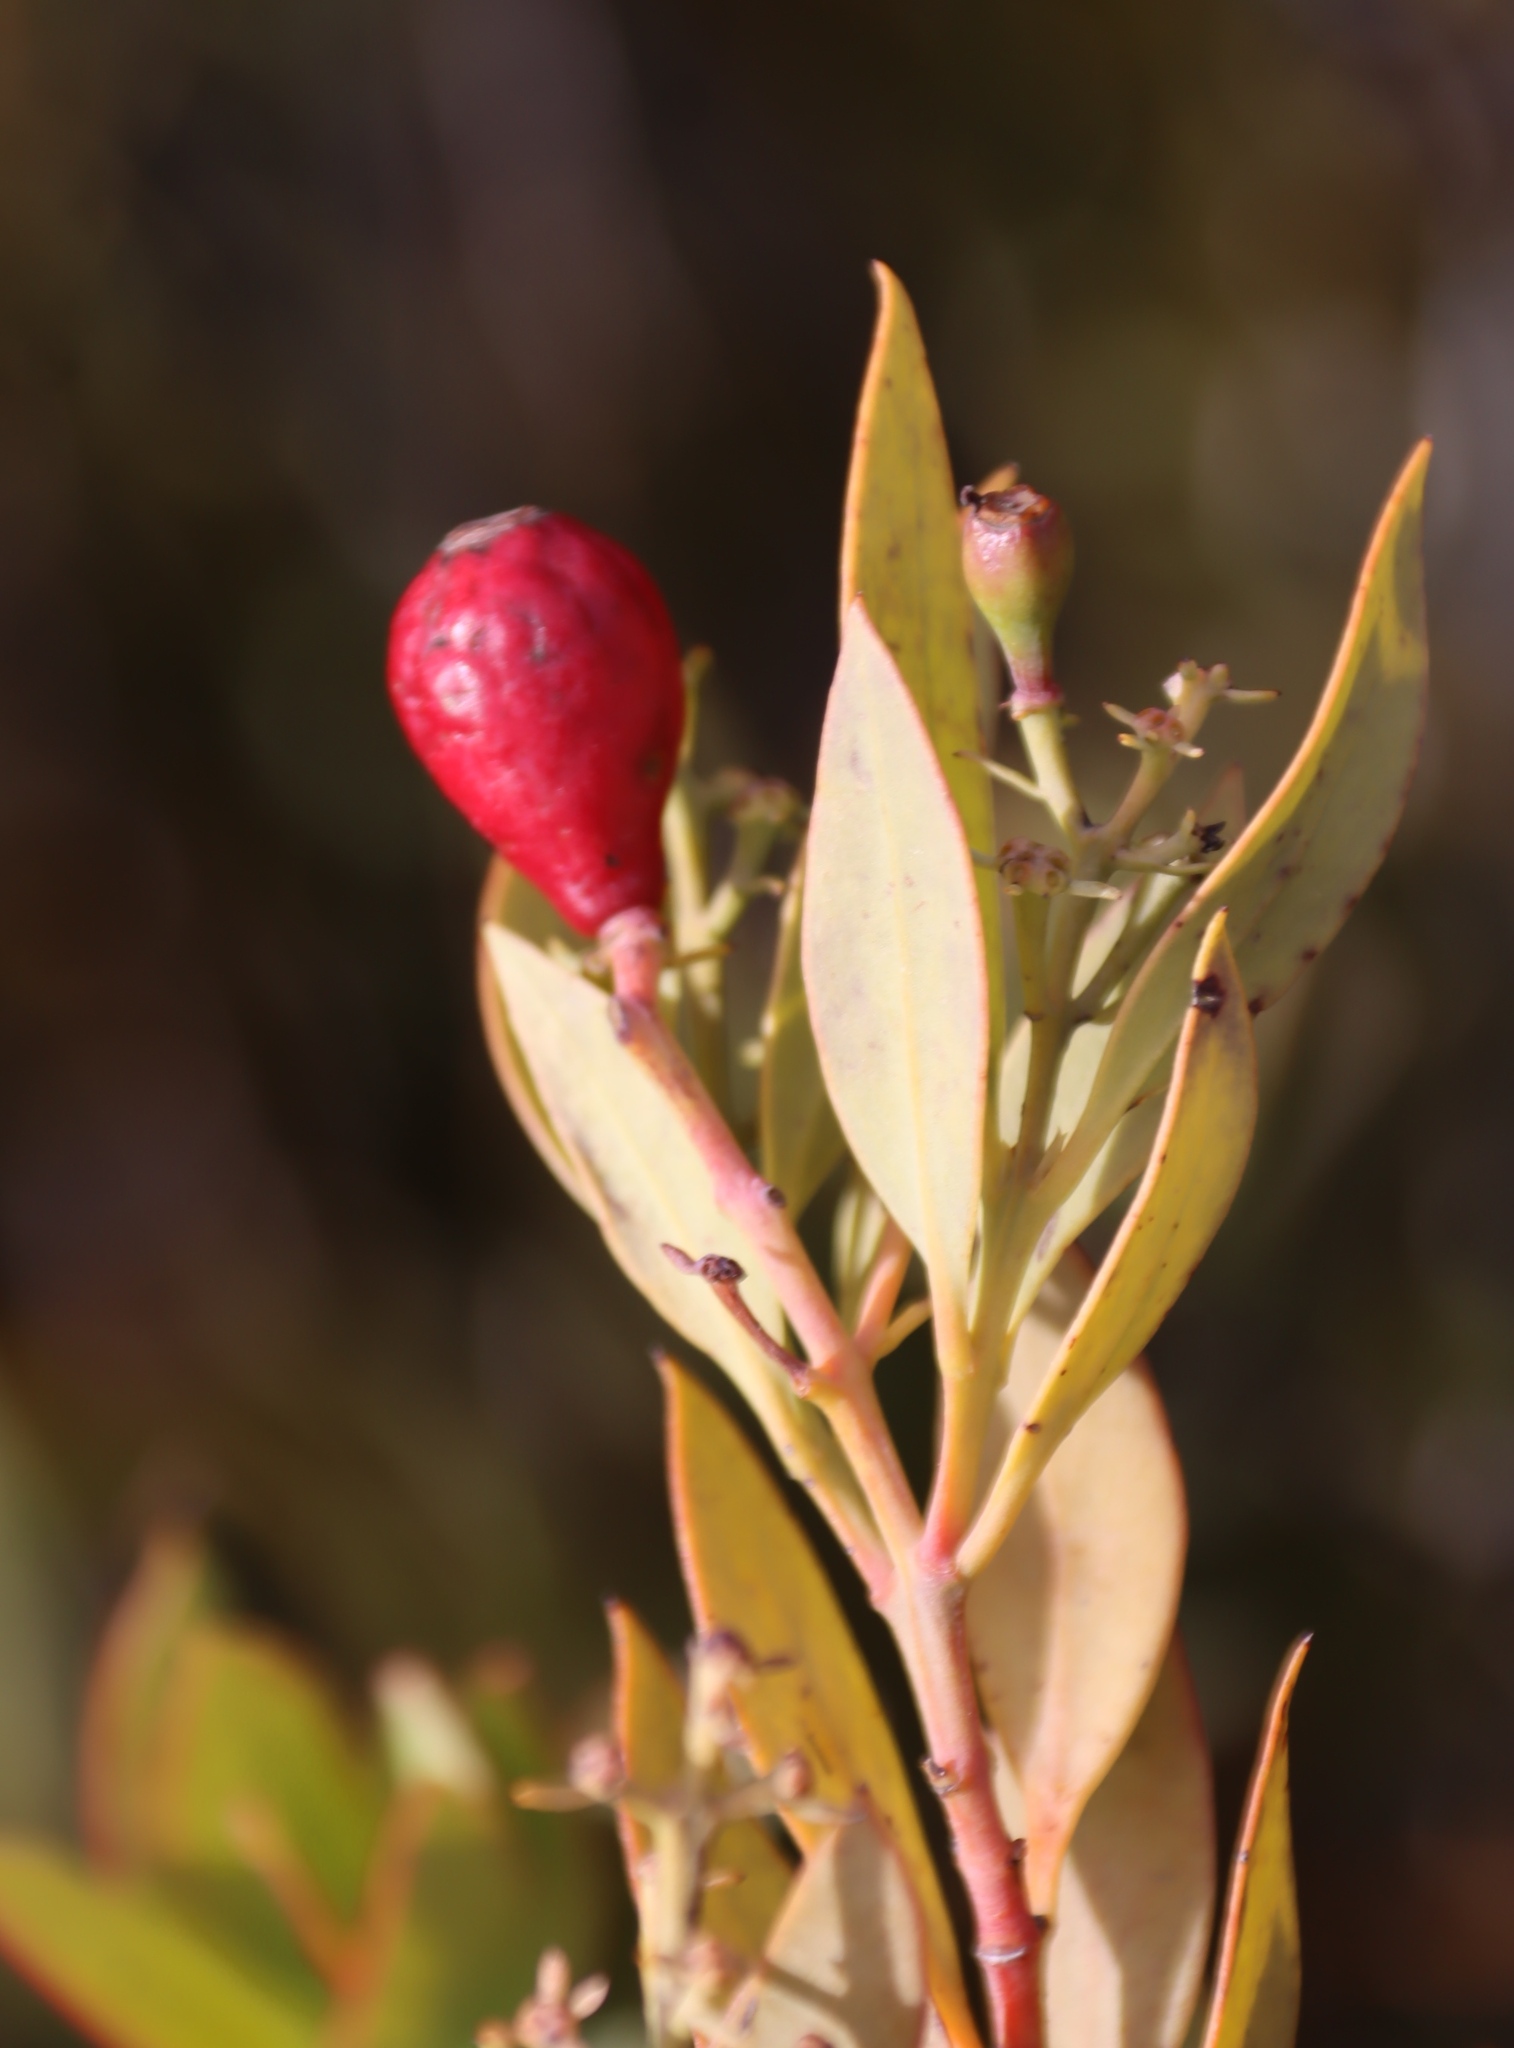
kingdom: Plantae
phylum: Tracheophyta
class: Magnoliopsida
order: Santalales
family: Santalaceae
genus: Osyris
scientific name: Osyris compressa
